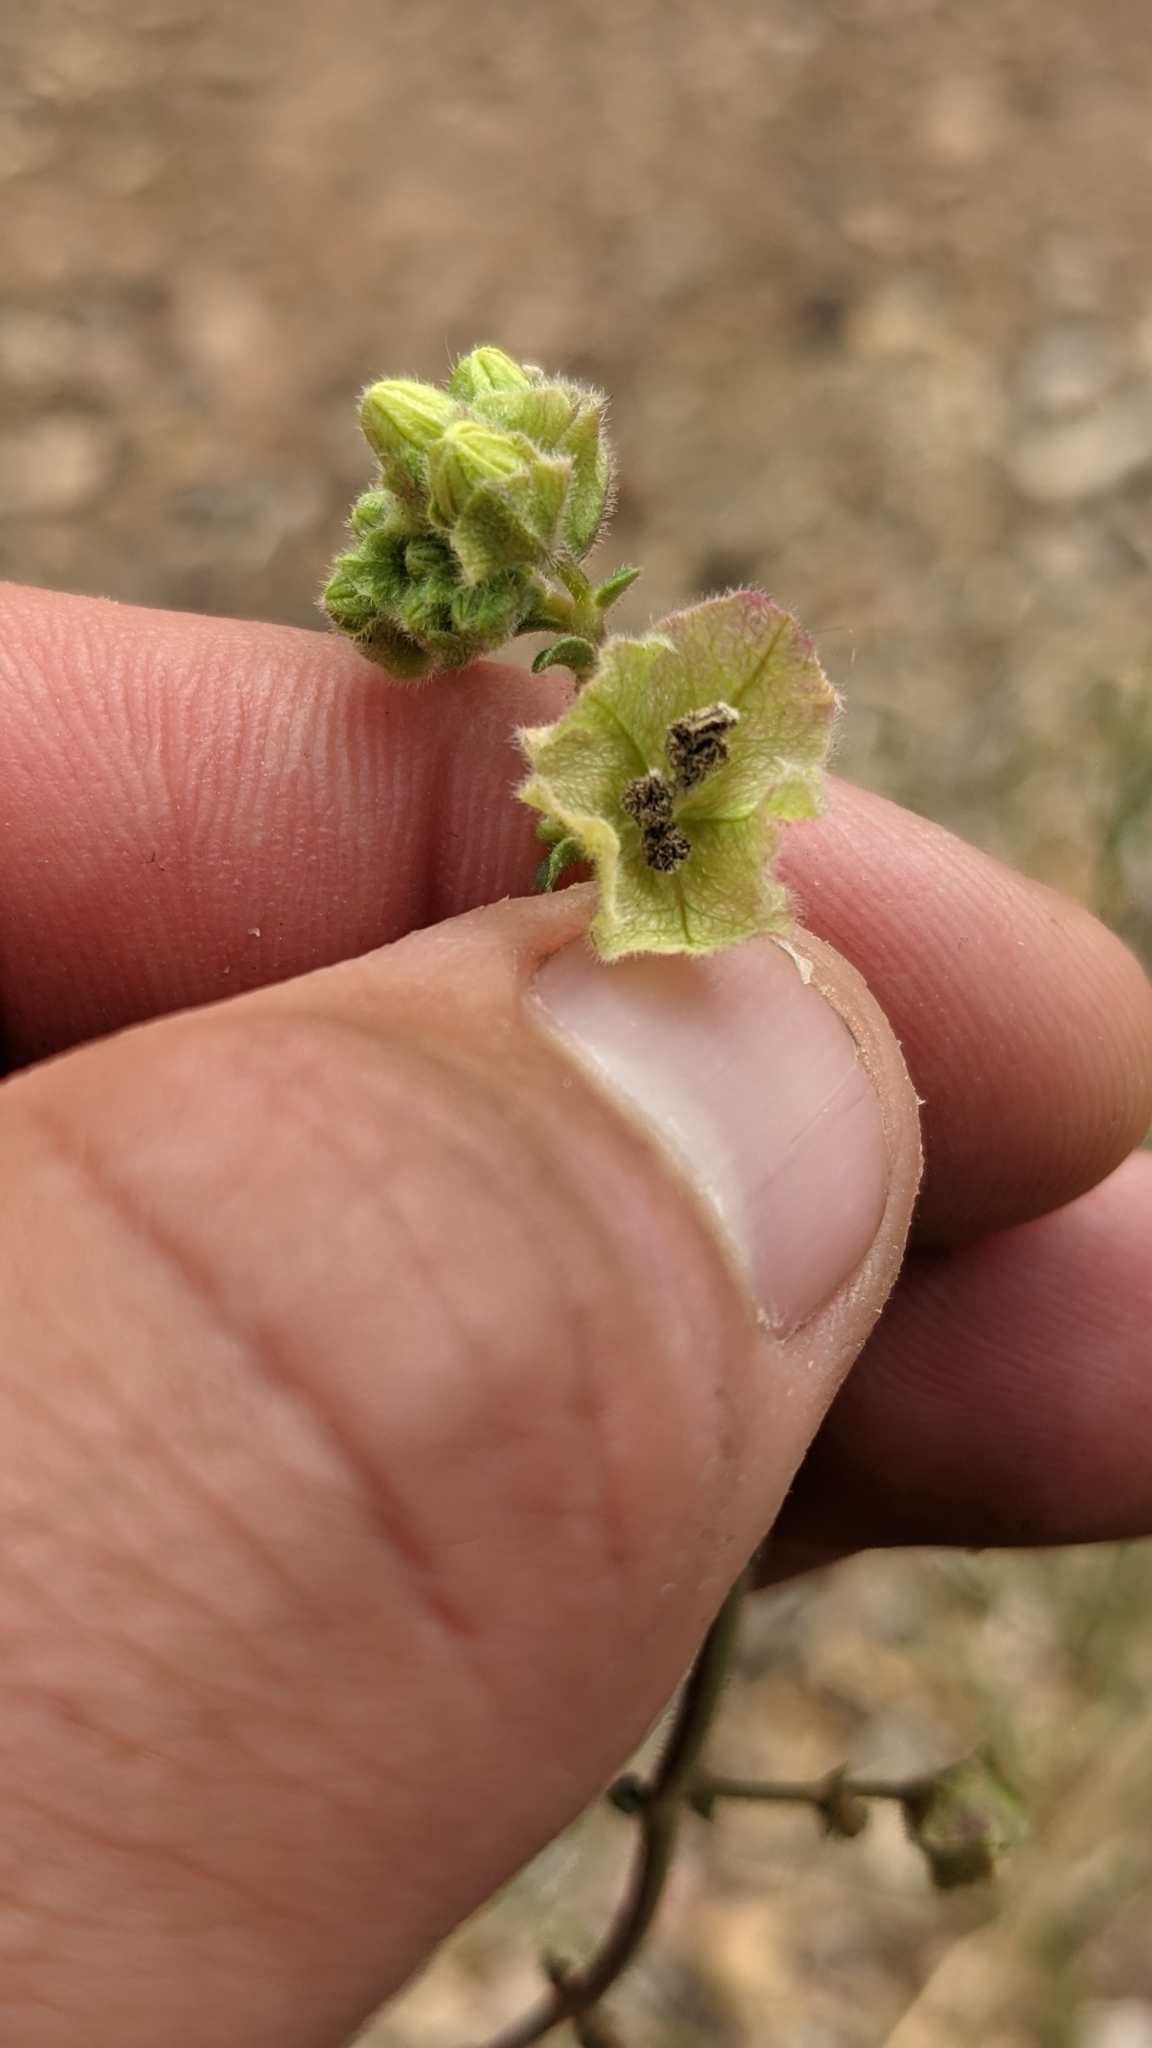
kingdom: Plantae
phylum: Tracheophyta
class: Magnoliopsida
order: Caryophyllales
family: Nyctaginaceae
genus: Mirabilis
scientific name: Mirabilis linearis
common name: Linear-leaved four-o'clock
